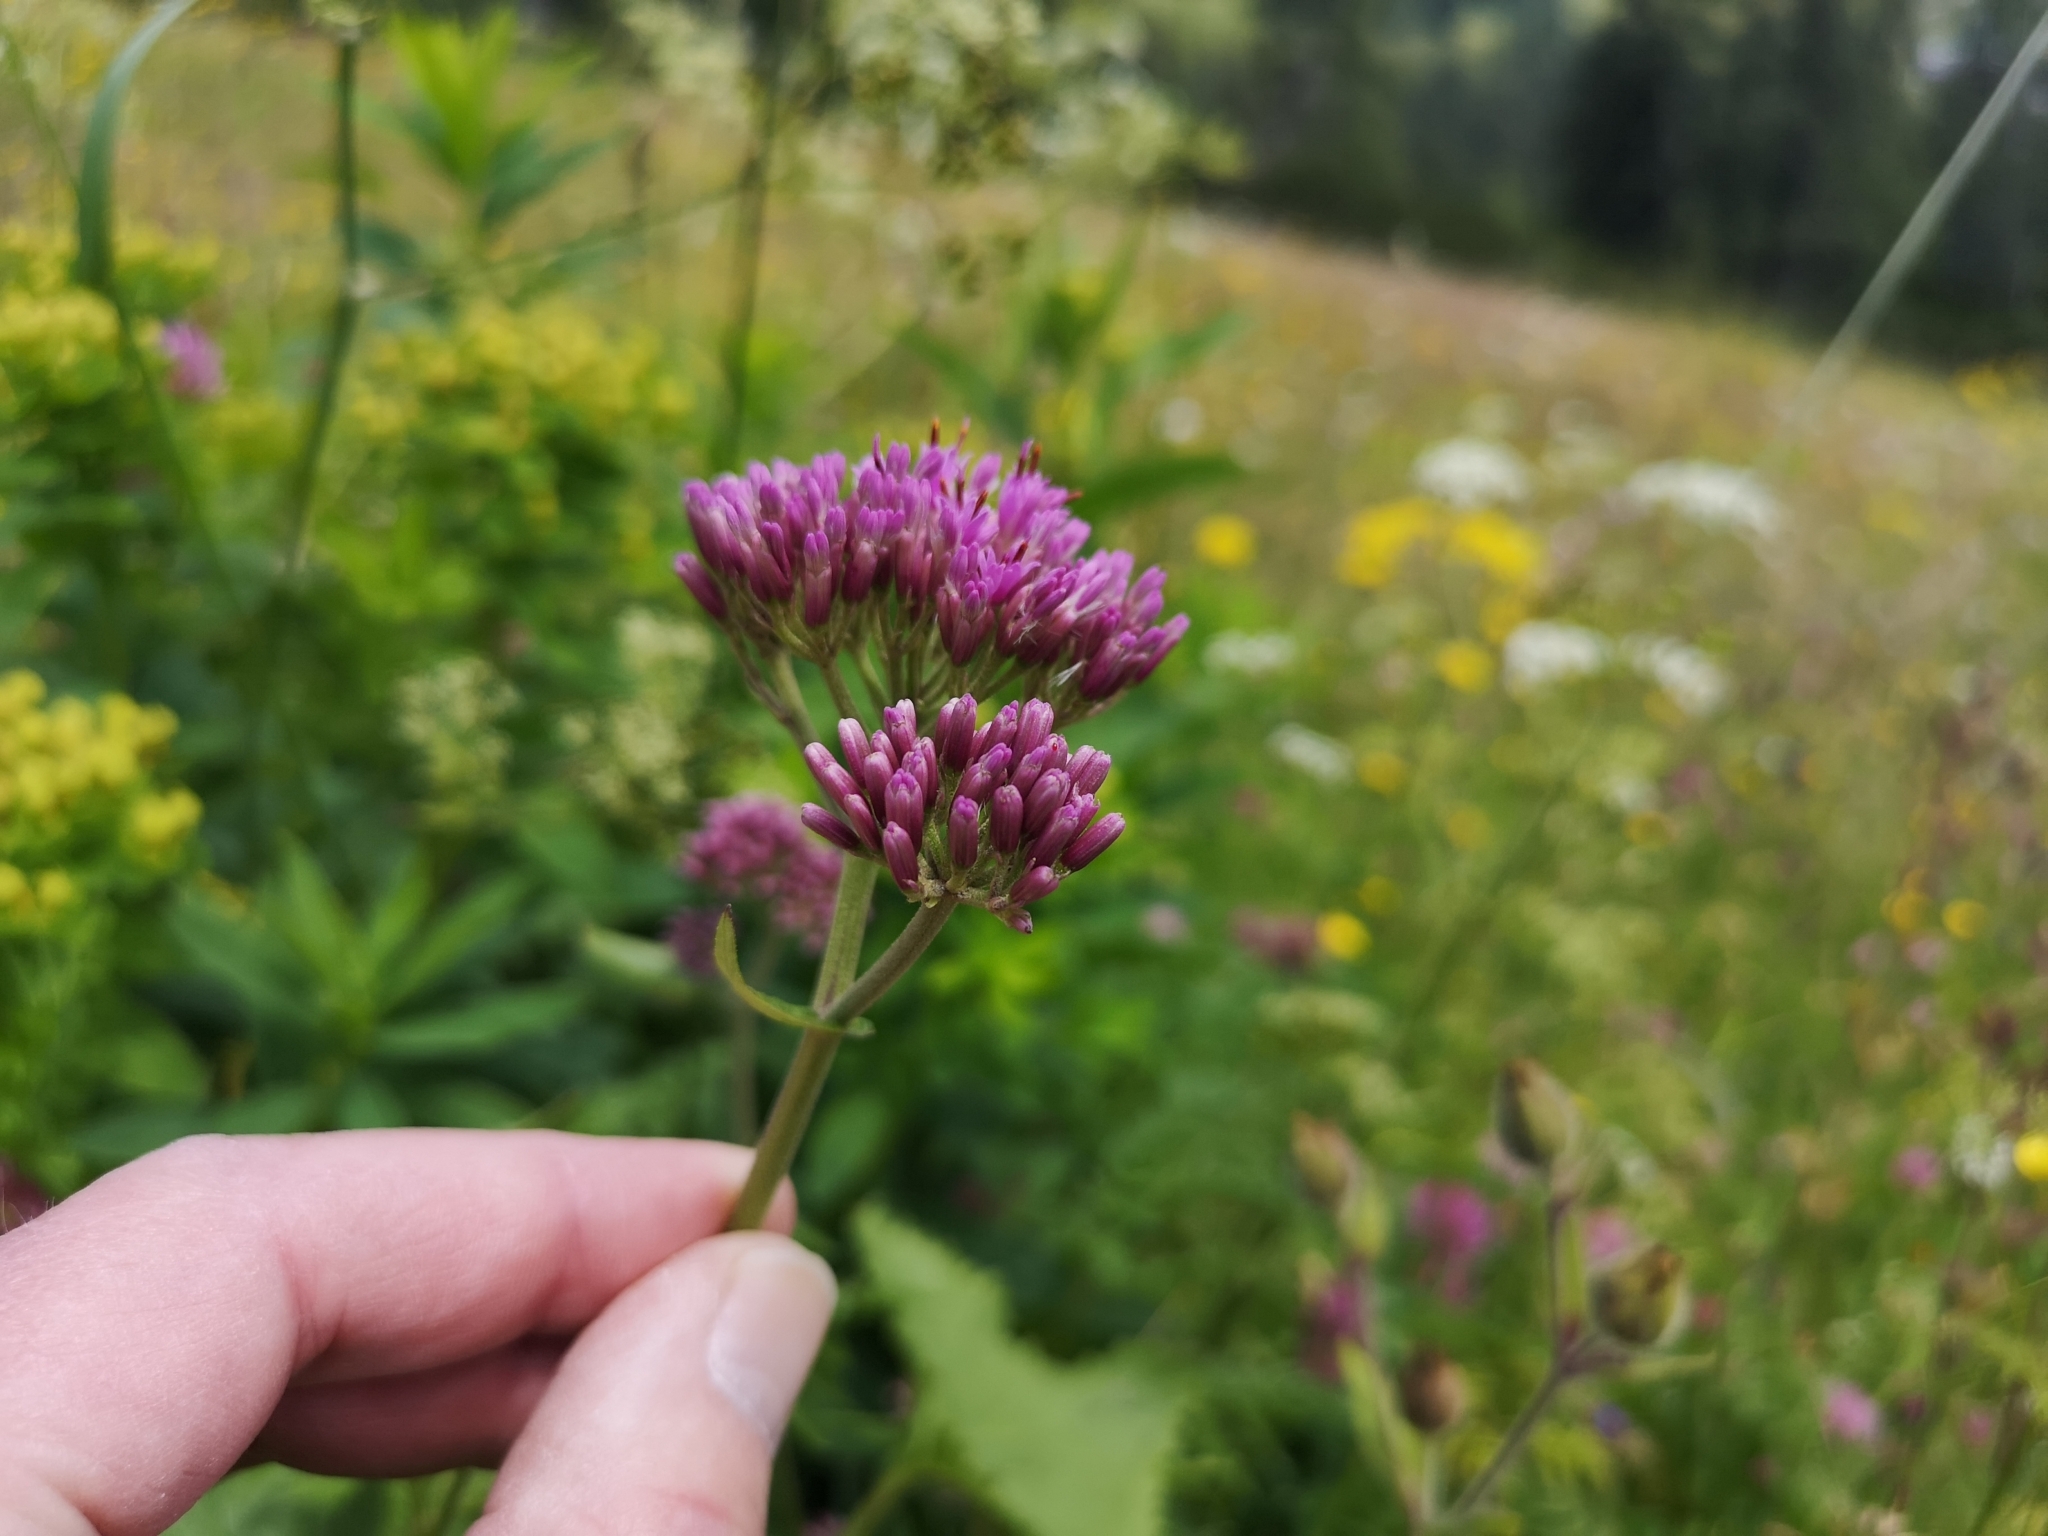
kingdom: Plantae
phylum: Tracheophyta
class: Magnoliopsida
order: Asterales
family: Asteraceae
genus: Adenostyles
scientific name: Adenostyles alpina
